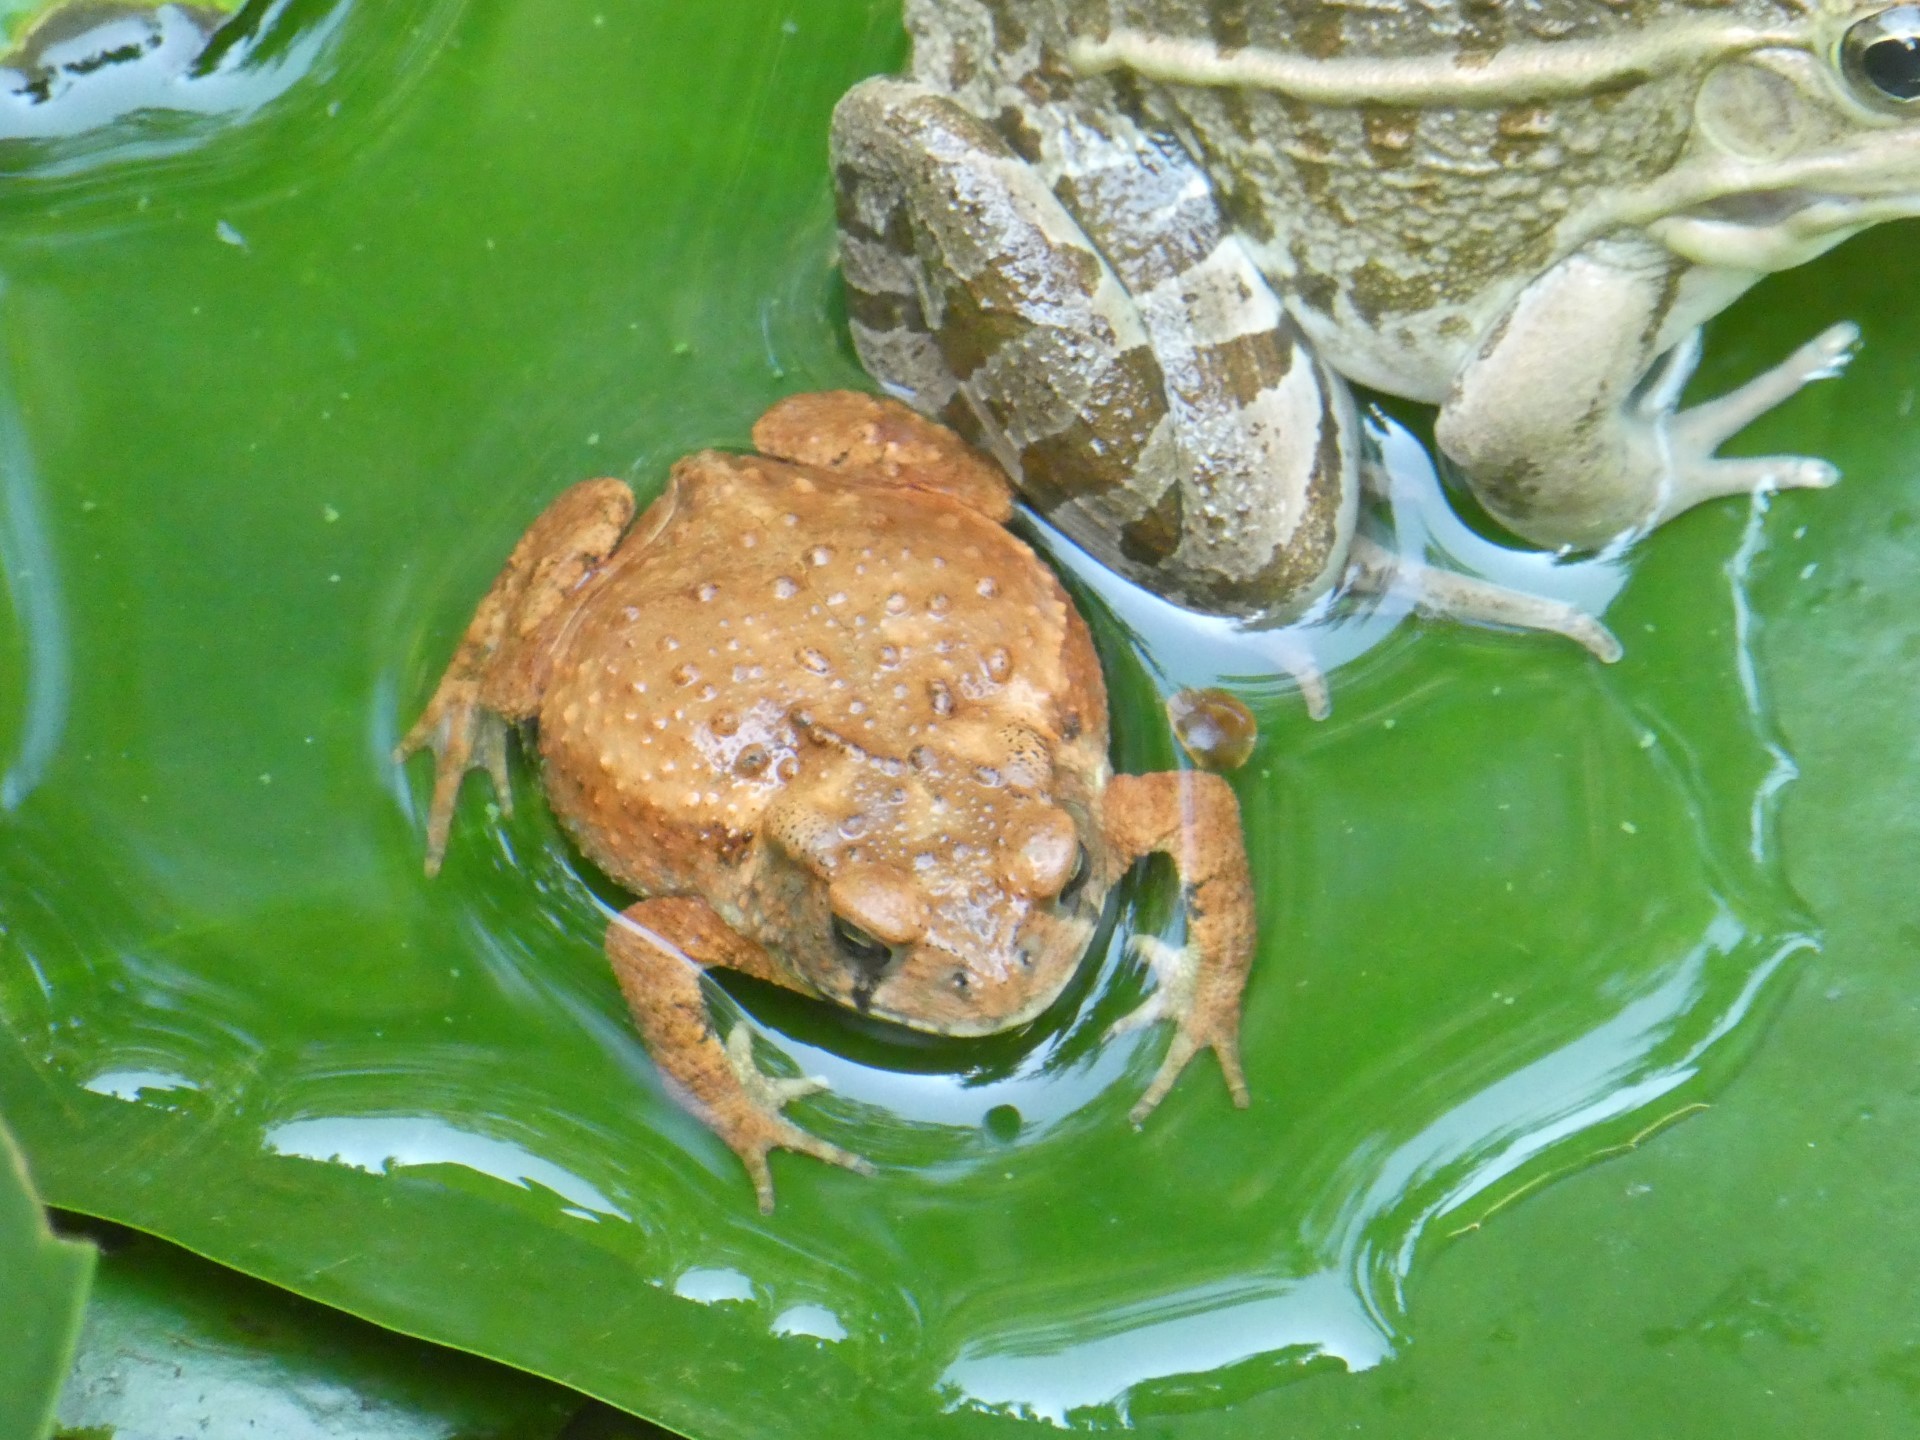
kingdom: Animalia
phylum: Chordata
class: Amphibia
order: Anura
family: Bufonidae
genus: Bufo
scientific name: Bufo gargarizans
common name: Asiatic toad
